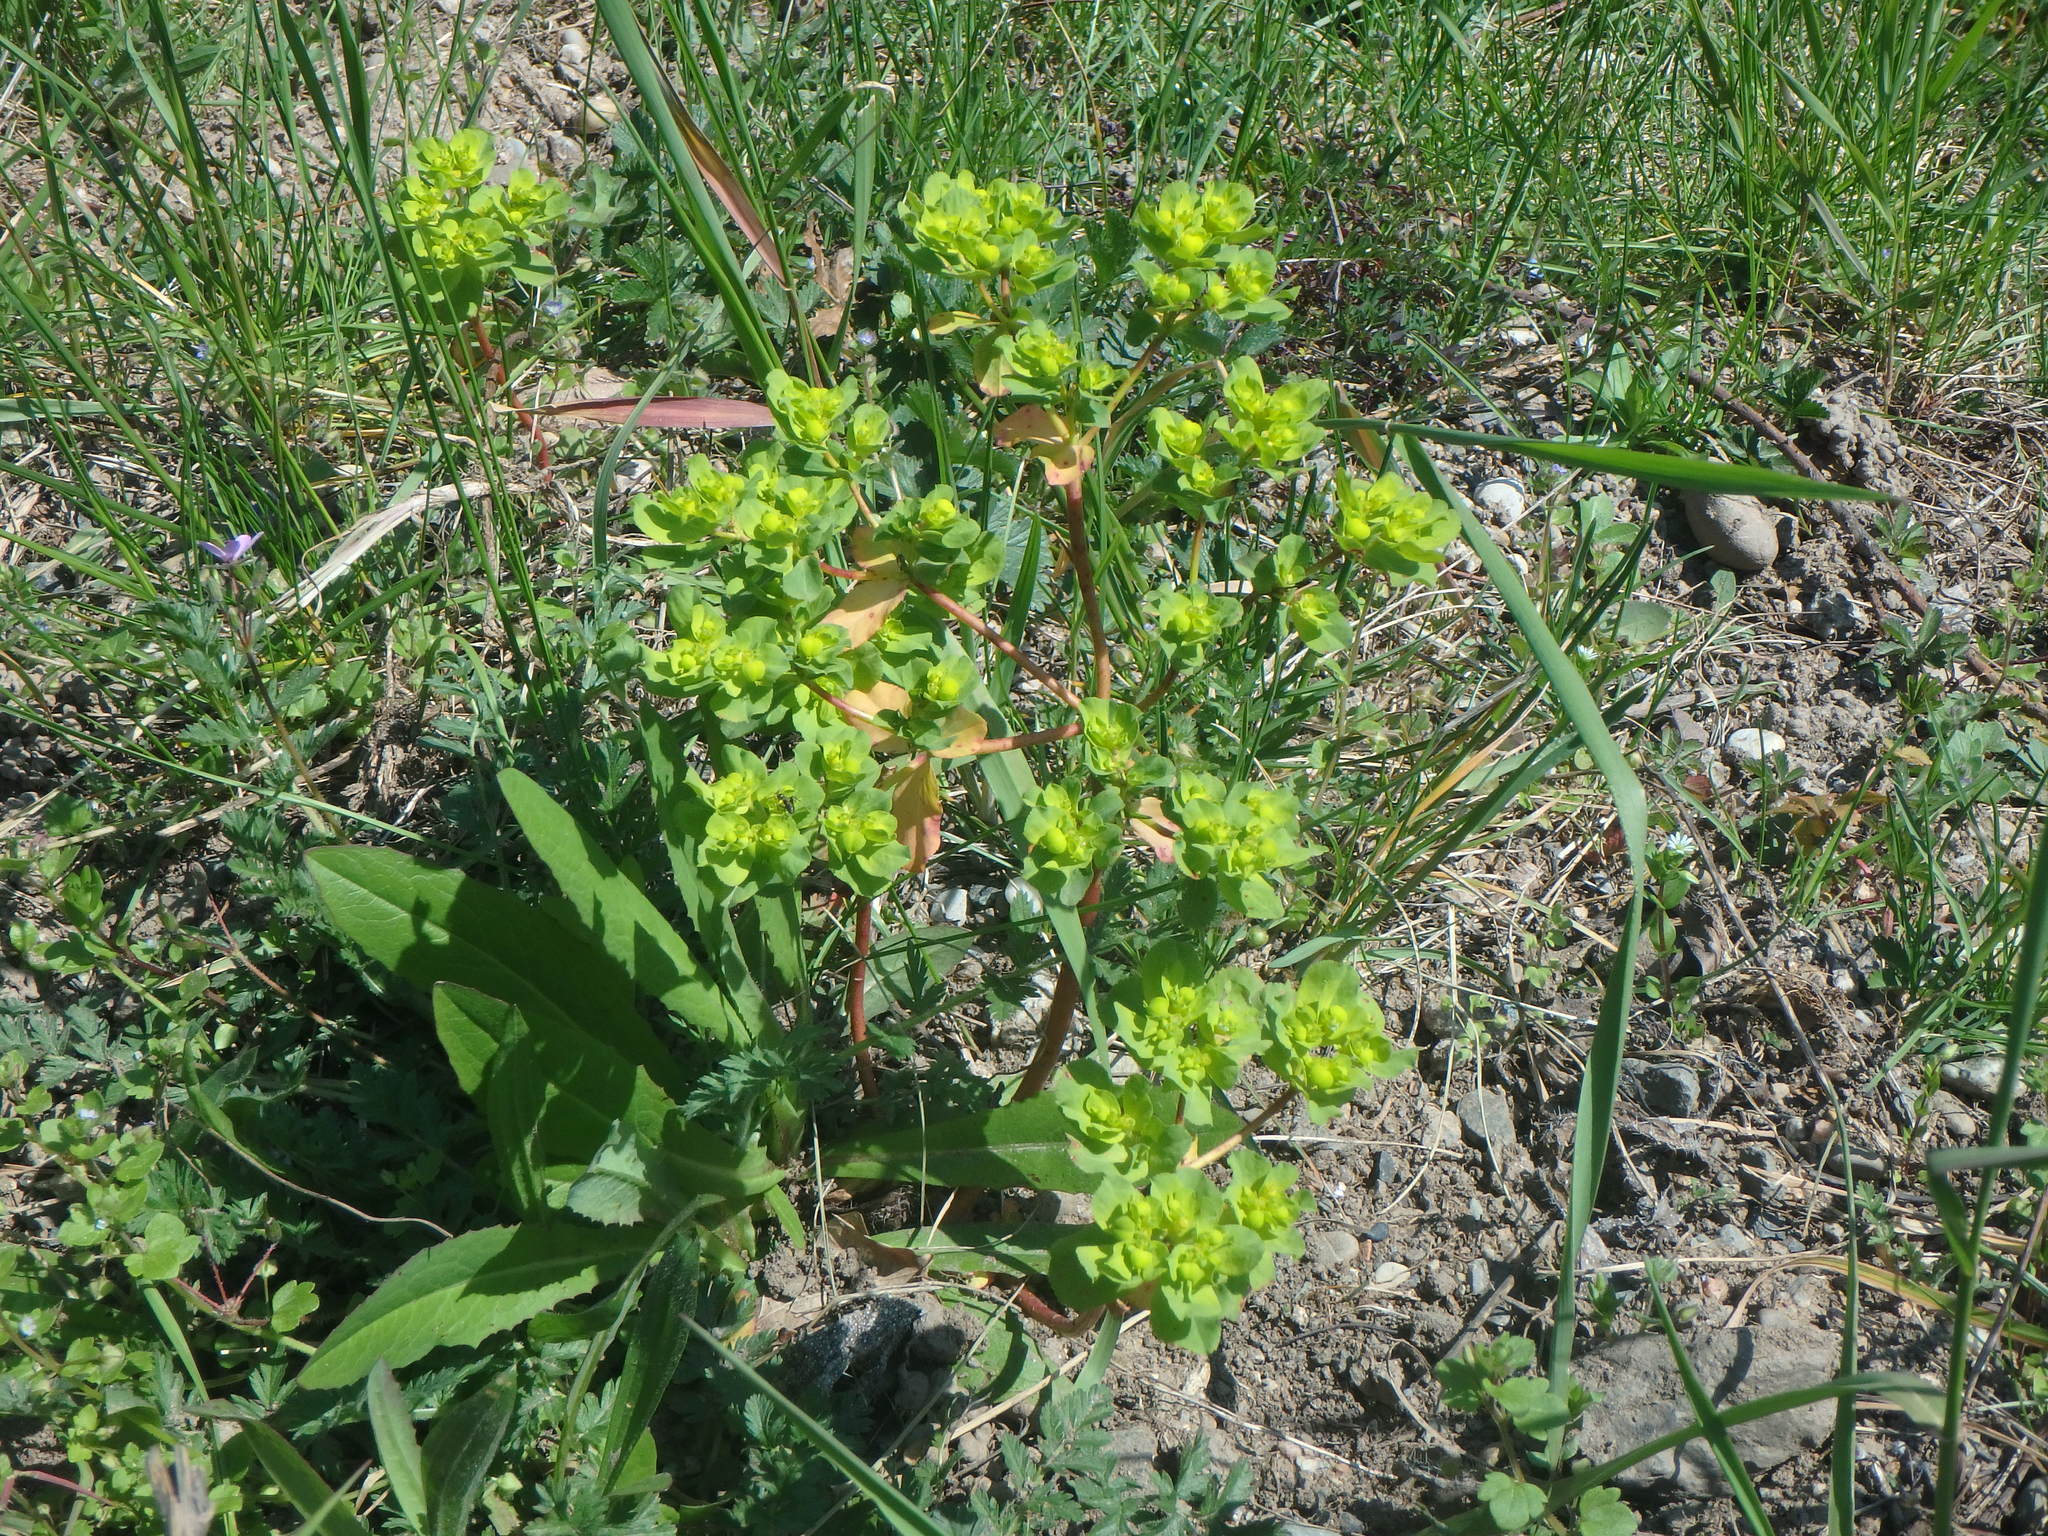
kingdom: Plantae
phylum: Tracheophyta
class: Magnoliopsida
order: Malpighiales
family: Euphorbiaceae
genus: Euphorbia
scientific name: Euphorbia helioscopia
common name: Sun spurge
